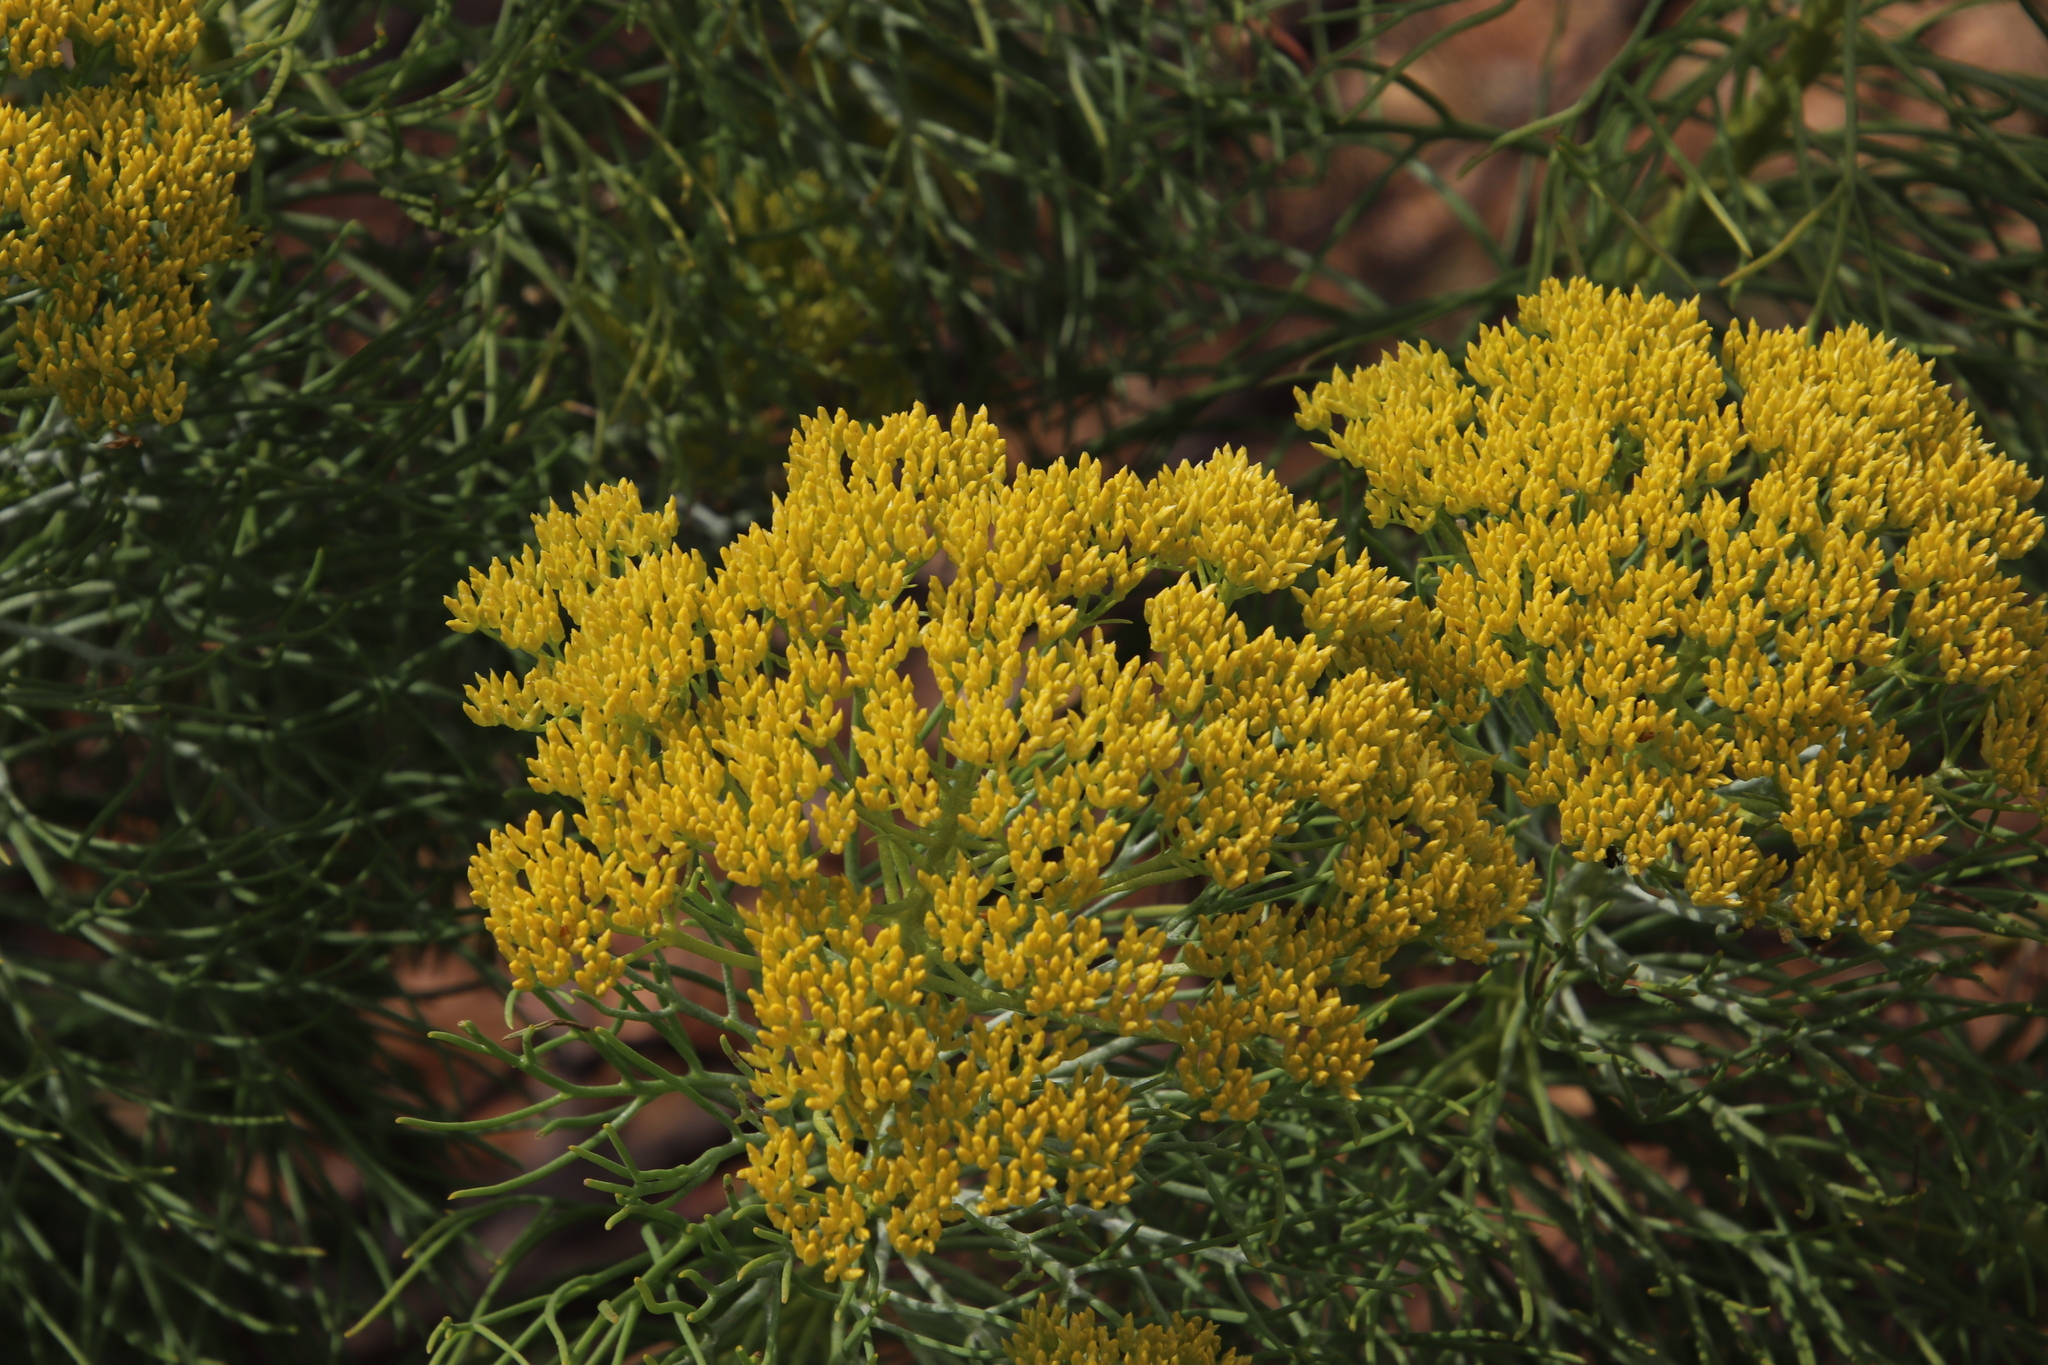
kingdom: Plantae
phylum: Tracheophyta
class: Magnoliopsida
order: Asterales
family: Asteraceae
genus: Hymenolepis
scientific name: Hymenolepis crithmifolia
